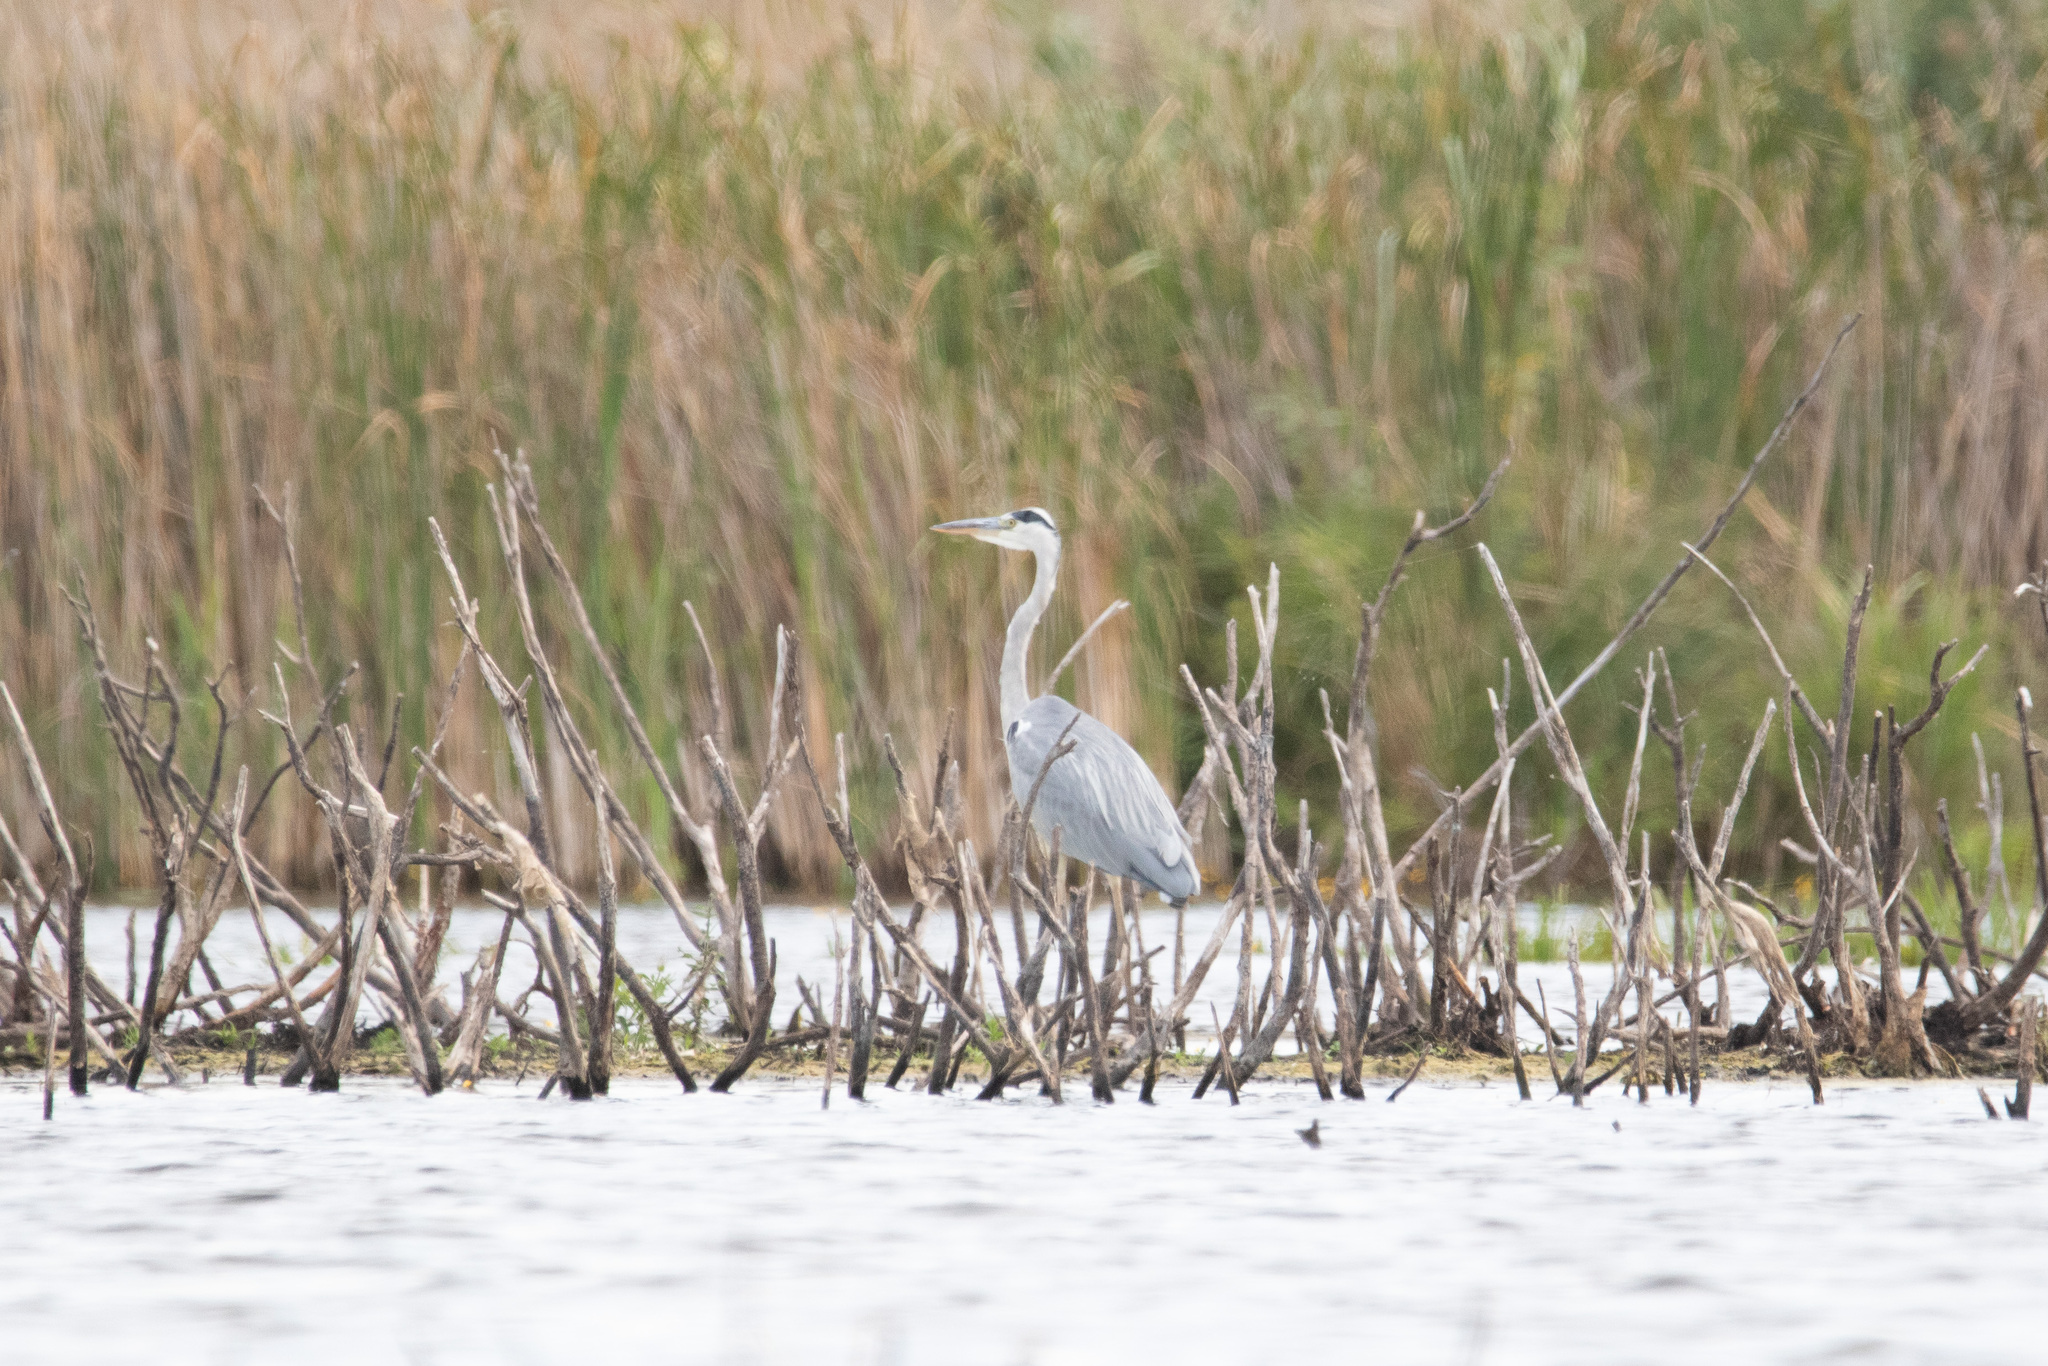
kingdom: Animalia
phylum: Chordata
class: Aves
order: Pelecaniformes
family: Ardeidae
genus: Ardea
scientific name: Ardea cinerea
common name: Grey heron
